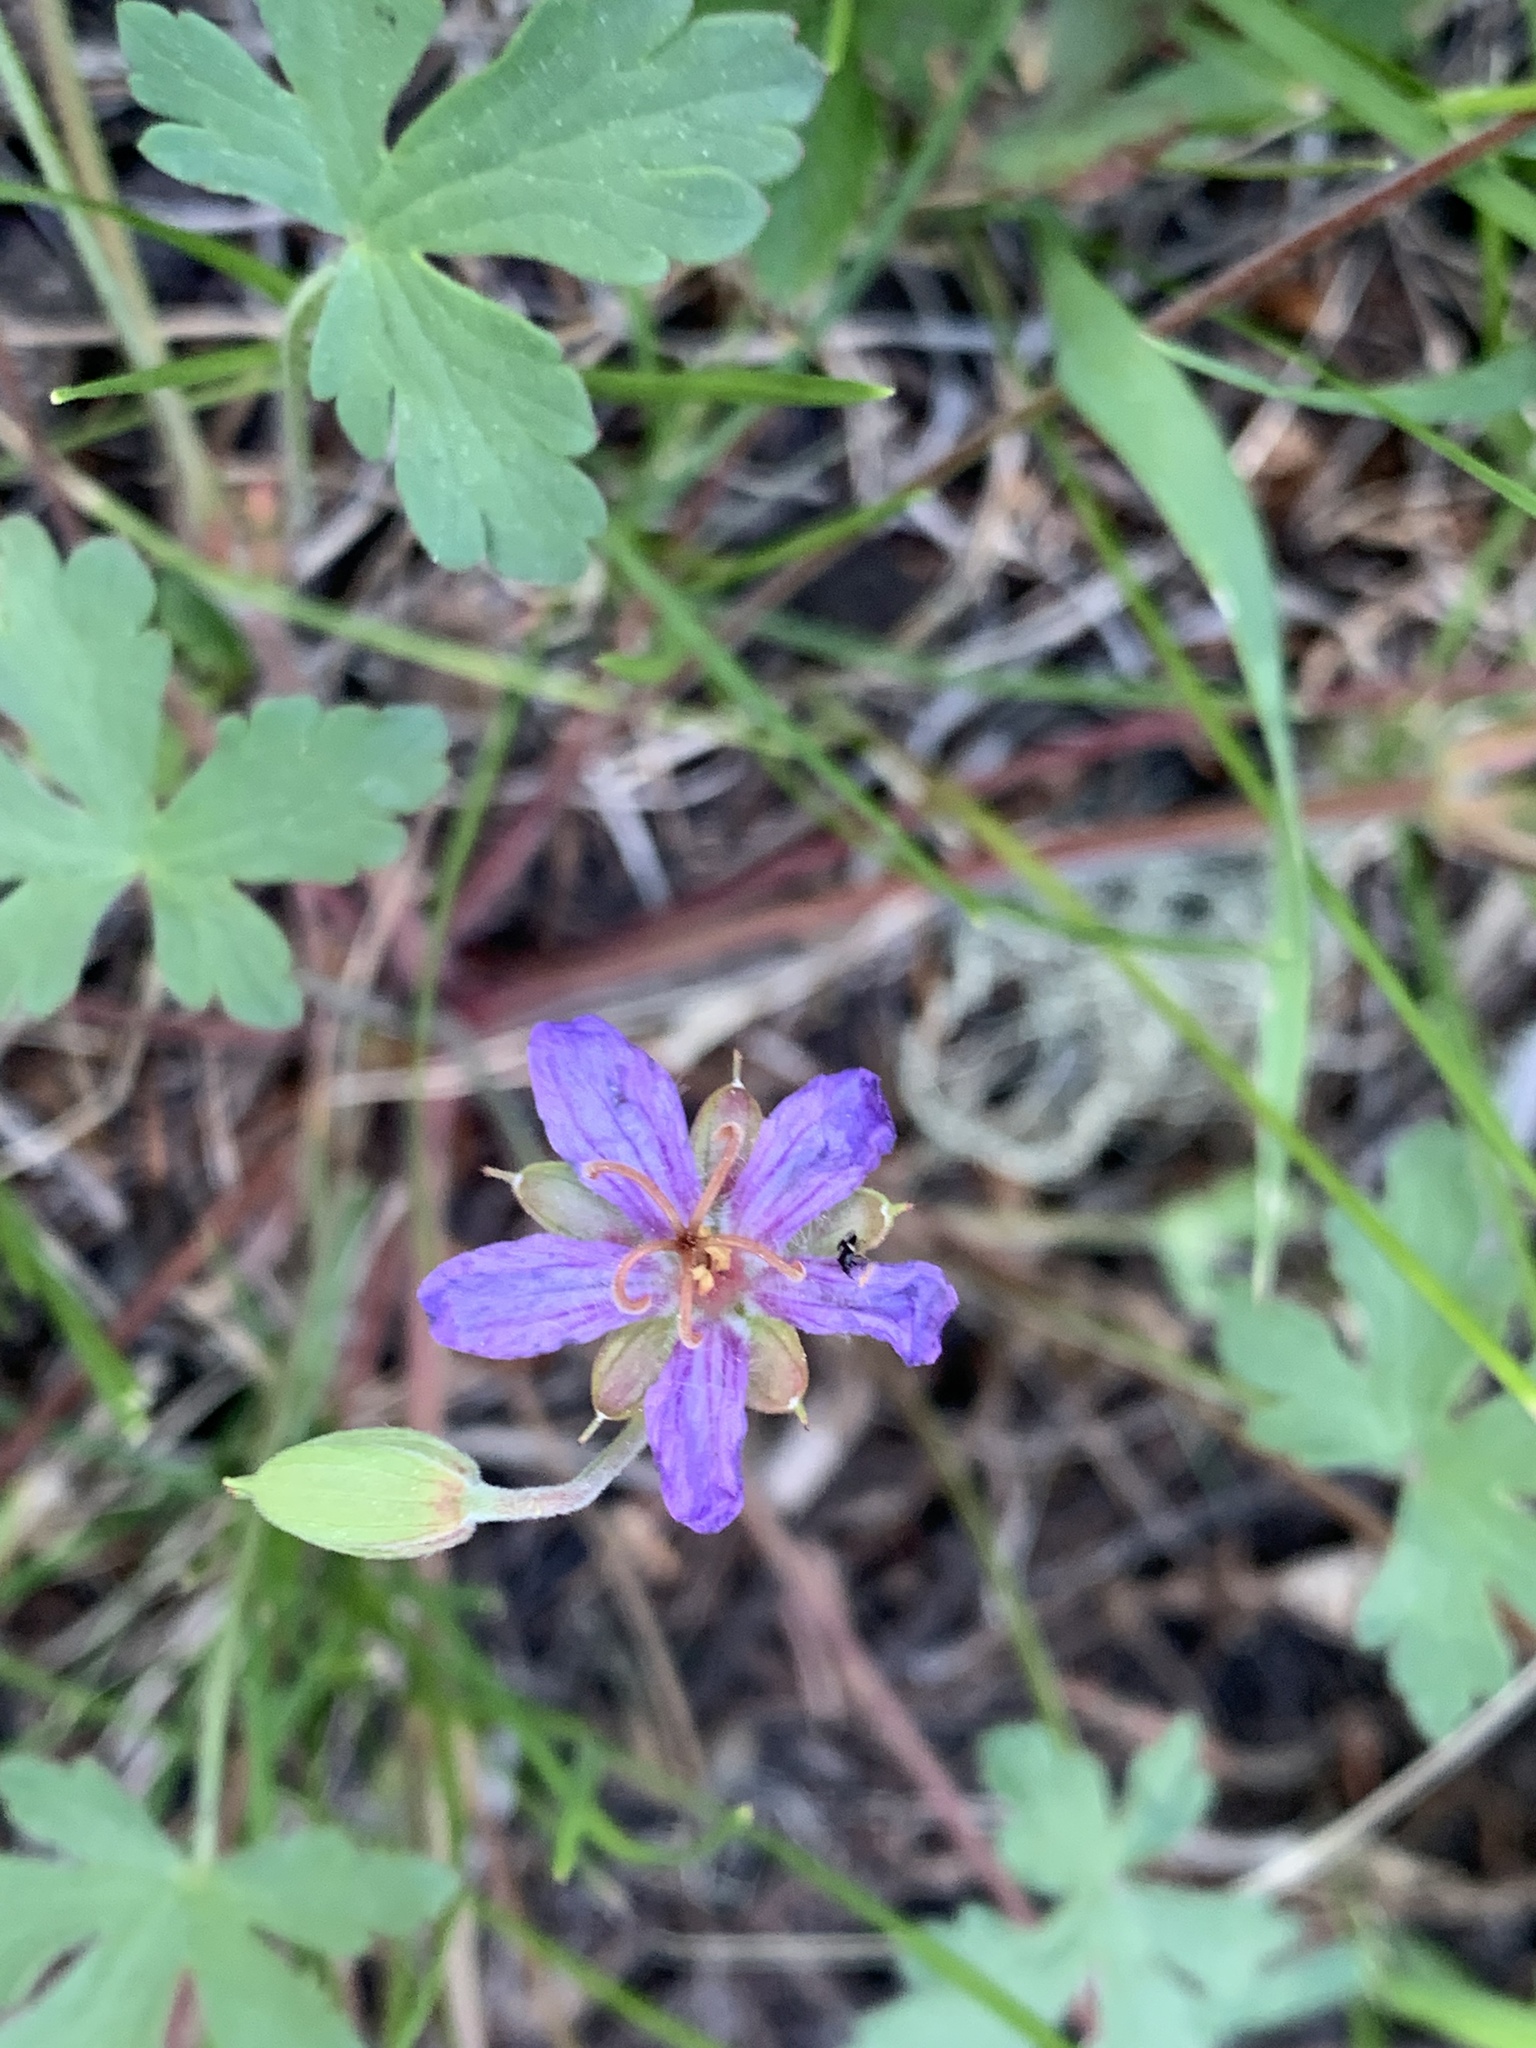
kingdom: Plantae
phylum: Tracheophyta
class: Magnoliopsida
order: Geraniales
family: Geraniaceae
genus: Geranium
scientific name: Geranium caespitosum
